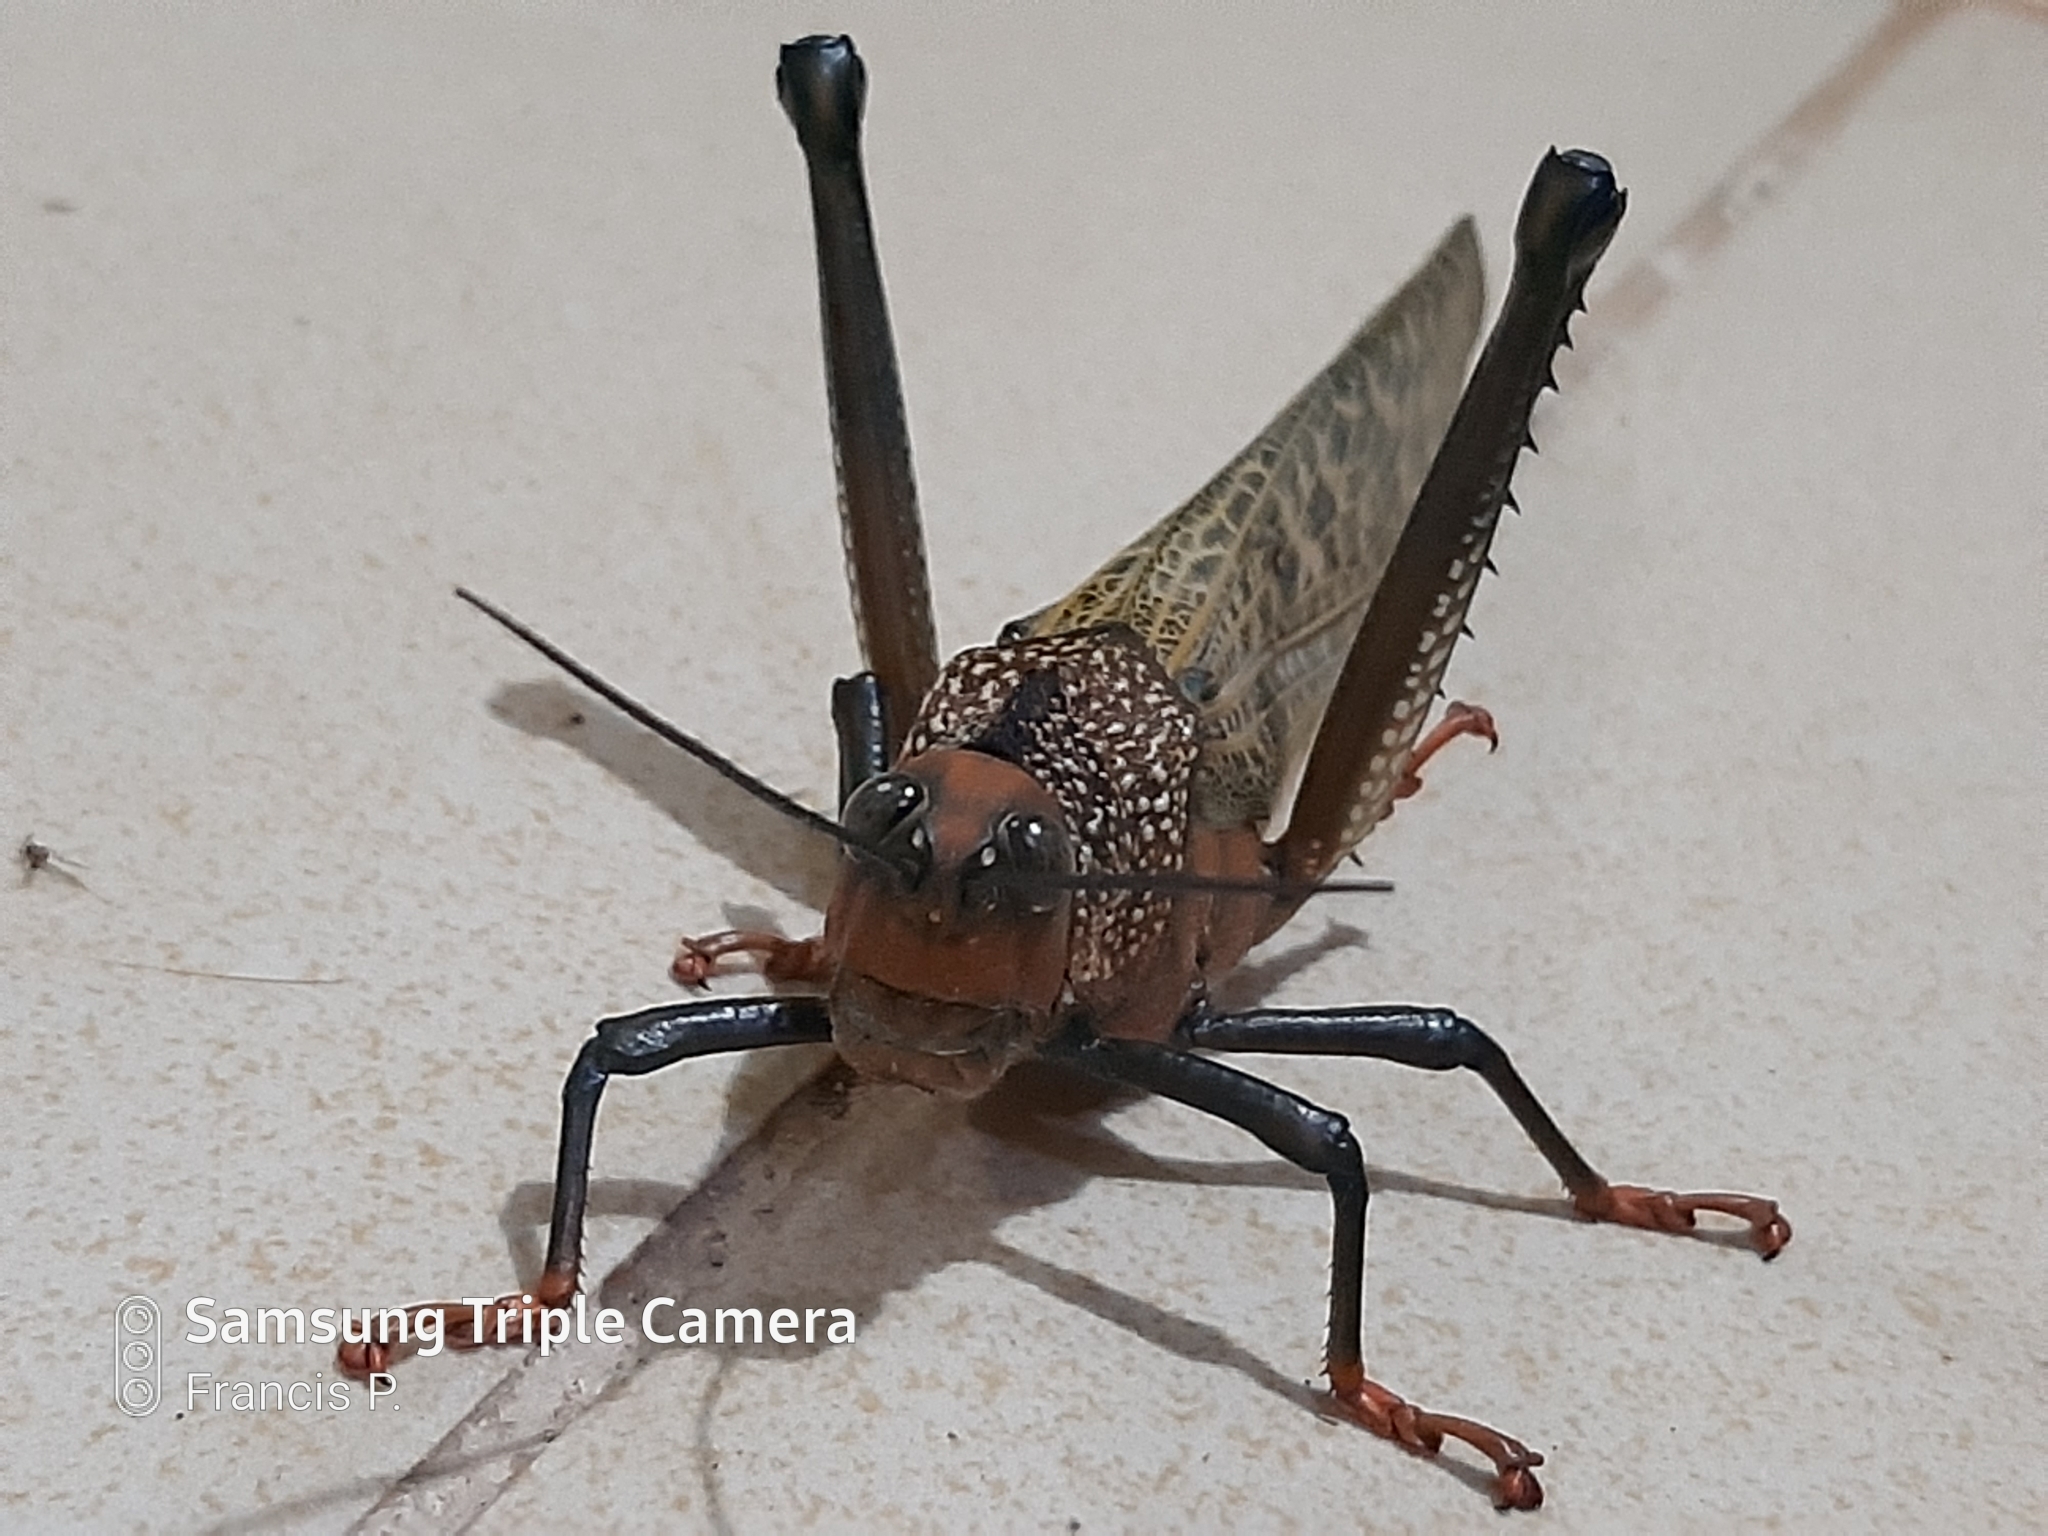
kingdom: Animalia
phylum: Arthropoda
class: Insecta
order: Orthoptera
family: Romaleidae
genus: Tropidacris
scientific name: Tropidacris cristata
